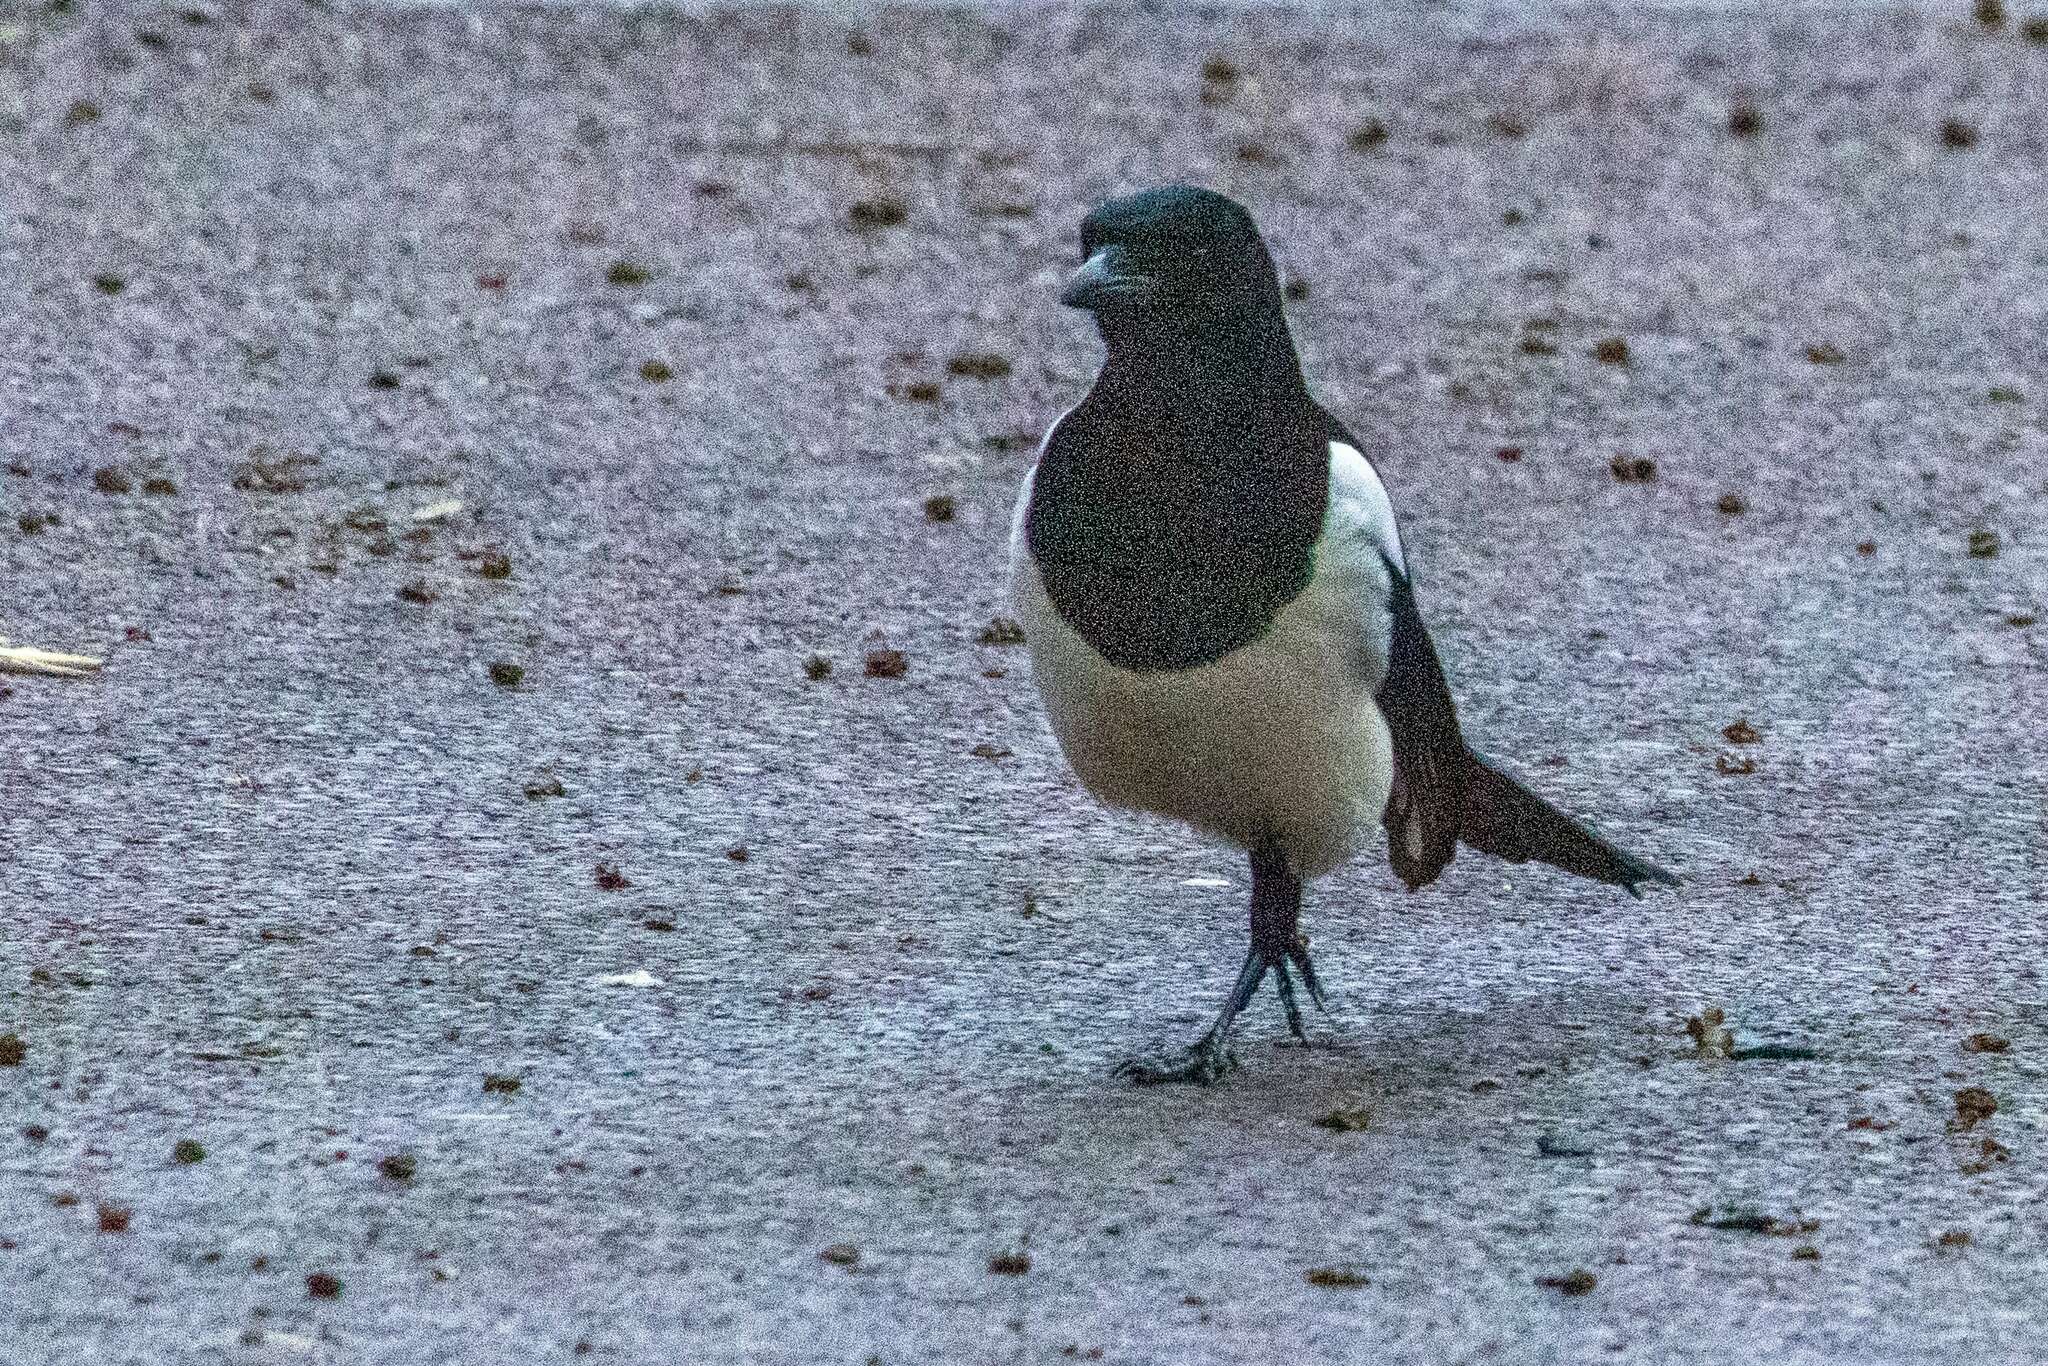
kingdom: Animalia
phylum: Chordata
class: Aves
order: Passeriformes
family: Corvidae
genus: Pica
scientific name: Pica pica
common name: Eurasian magpie
